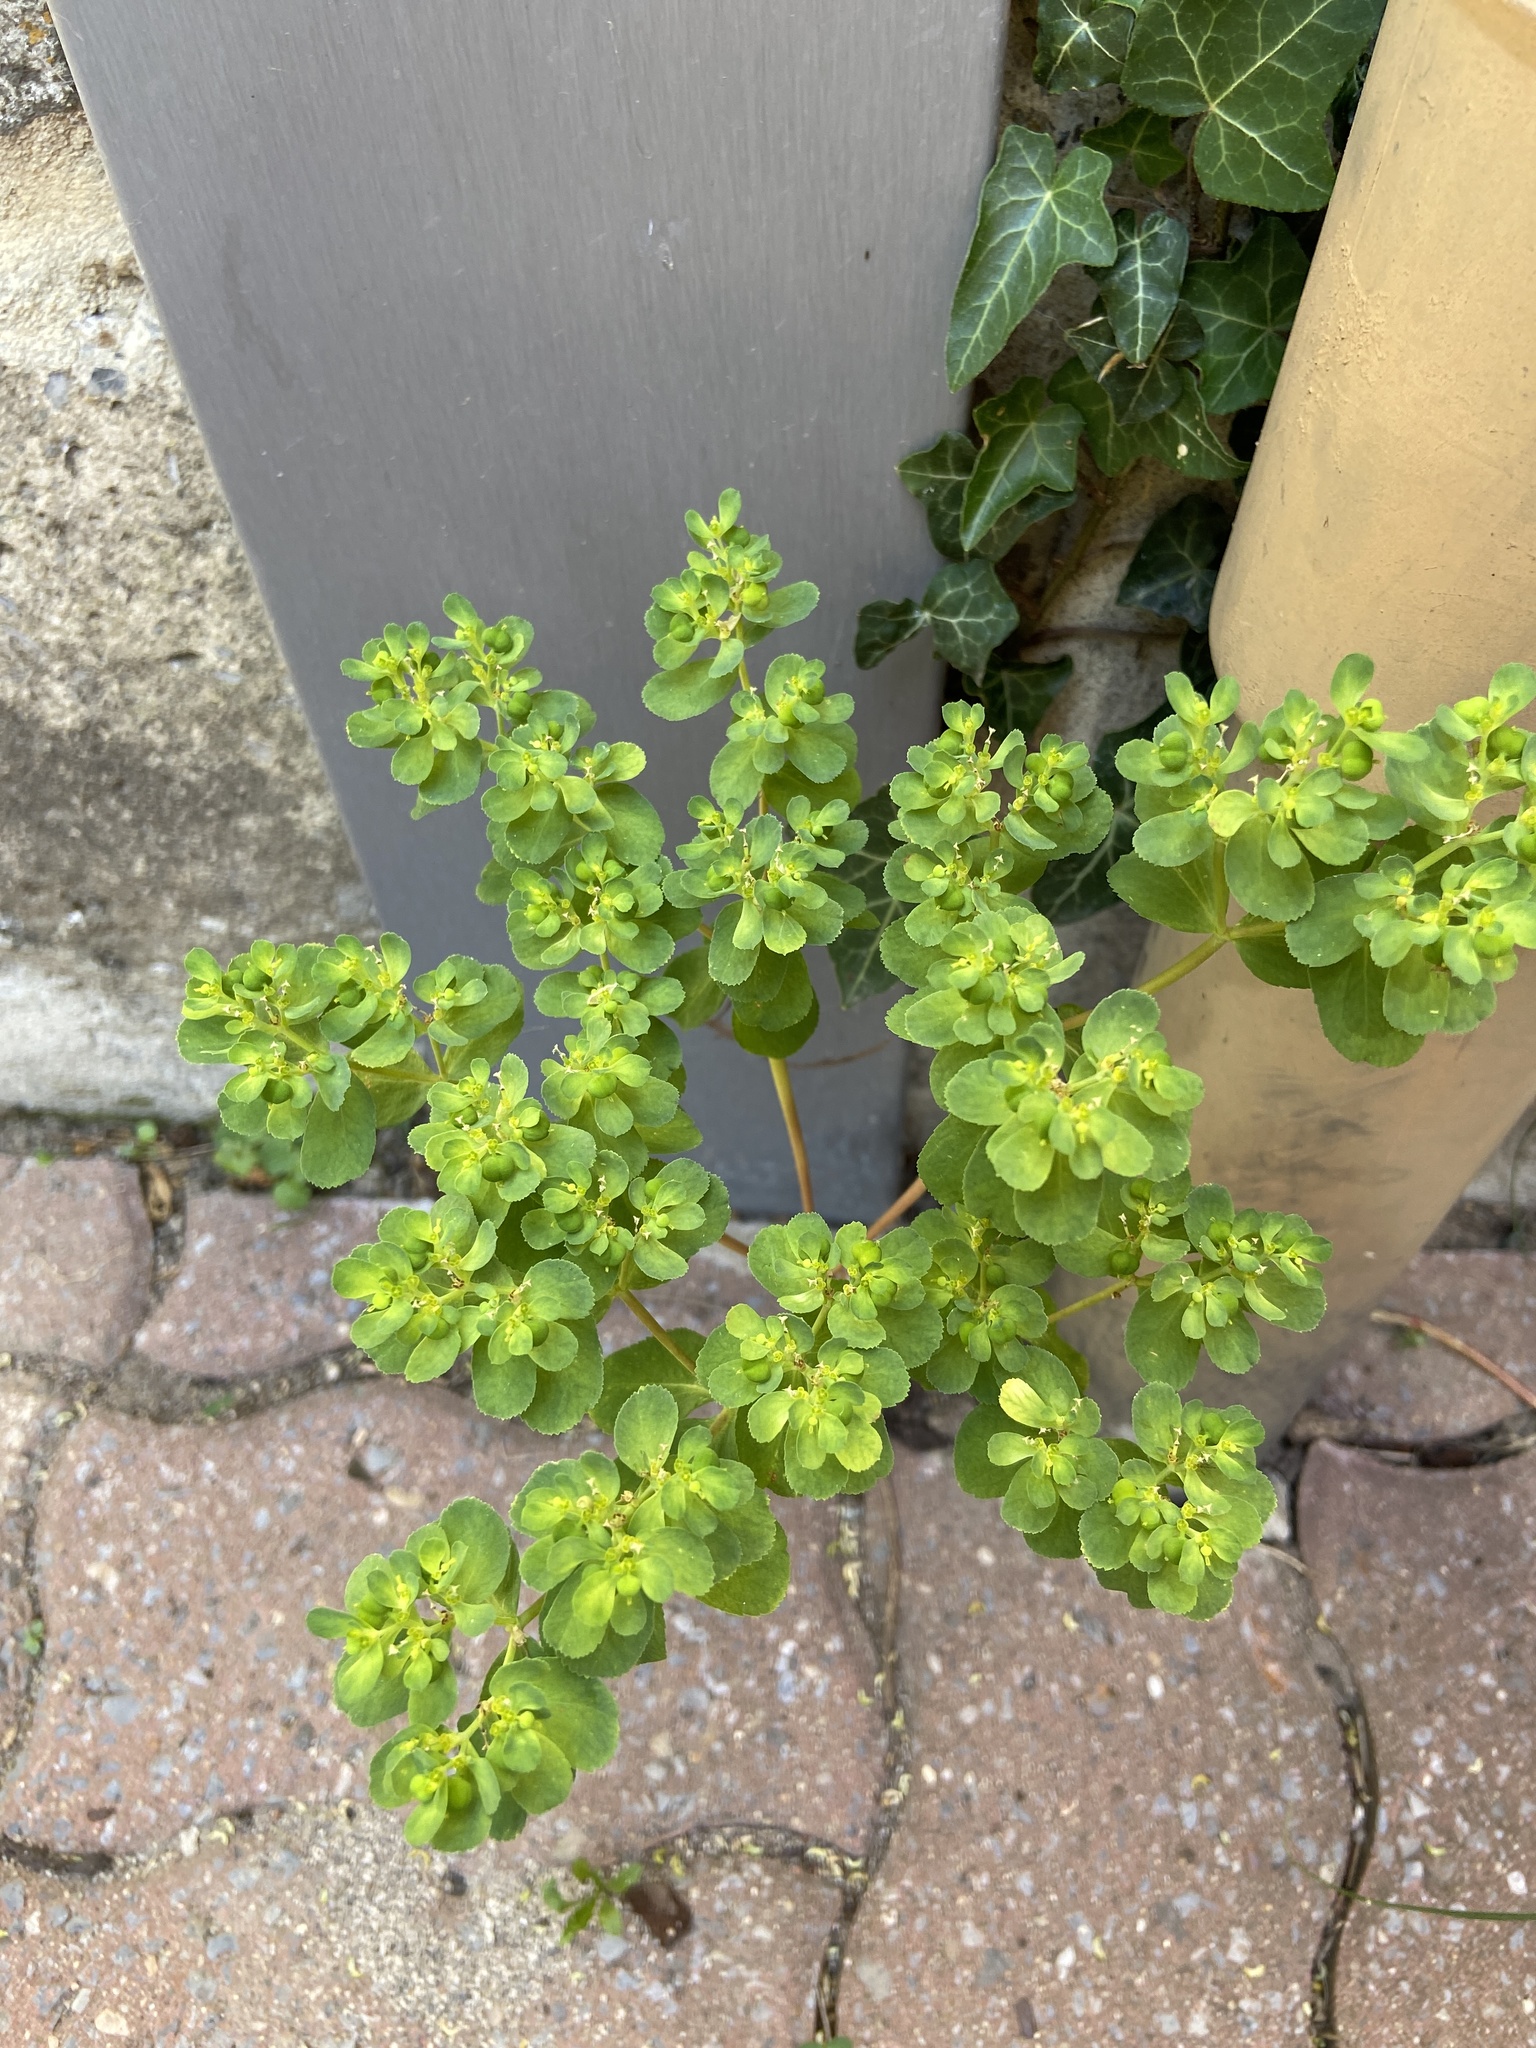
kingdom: Plantae
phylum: Tracheophyta
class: Magnoliopsida
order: Malpighiales
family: Euphorbiaceae
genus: Euphorbia
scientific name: Euphorbia helioscopia
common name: Sun spurge
